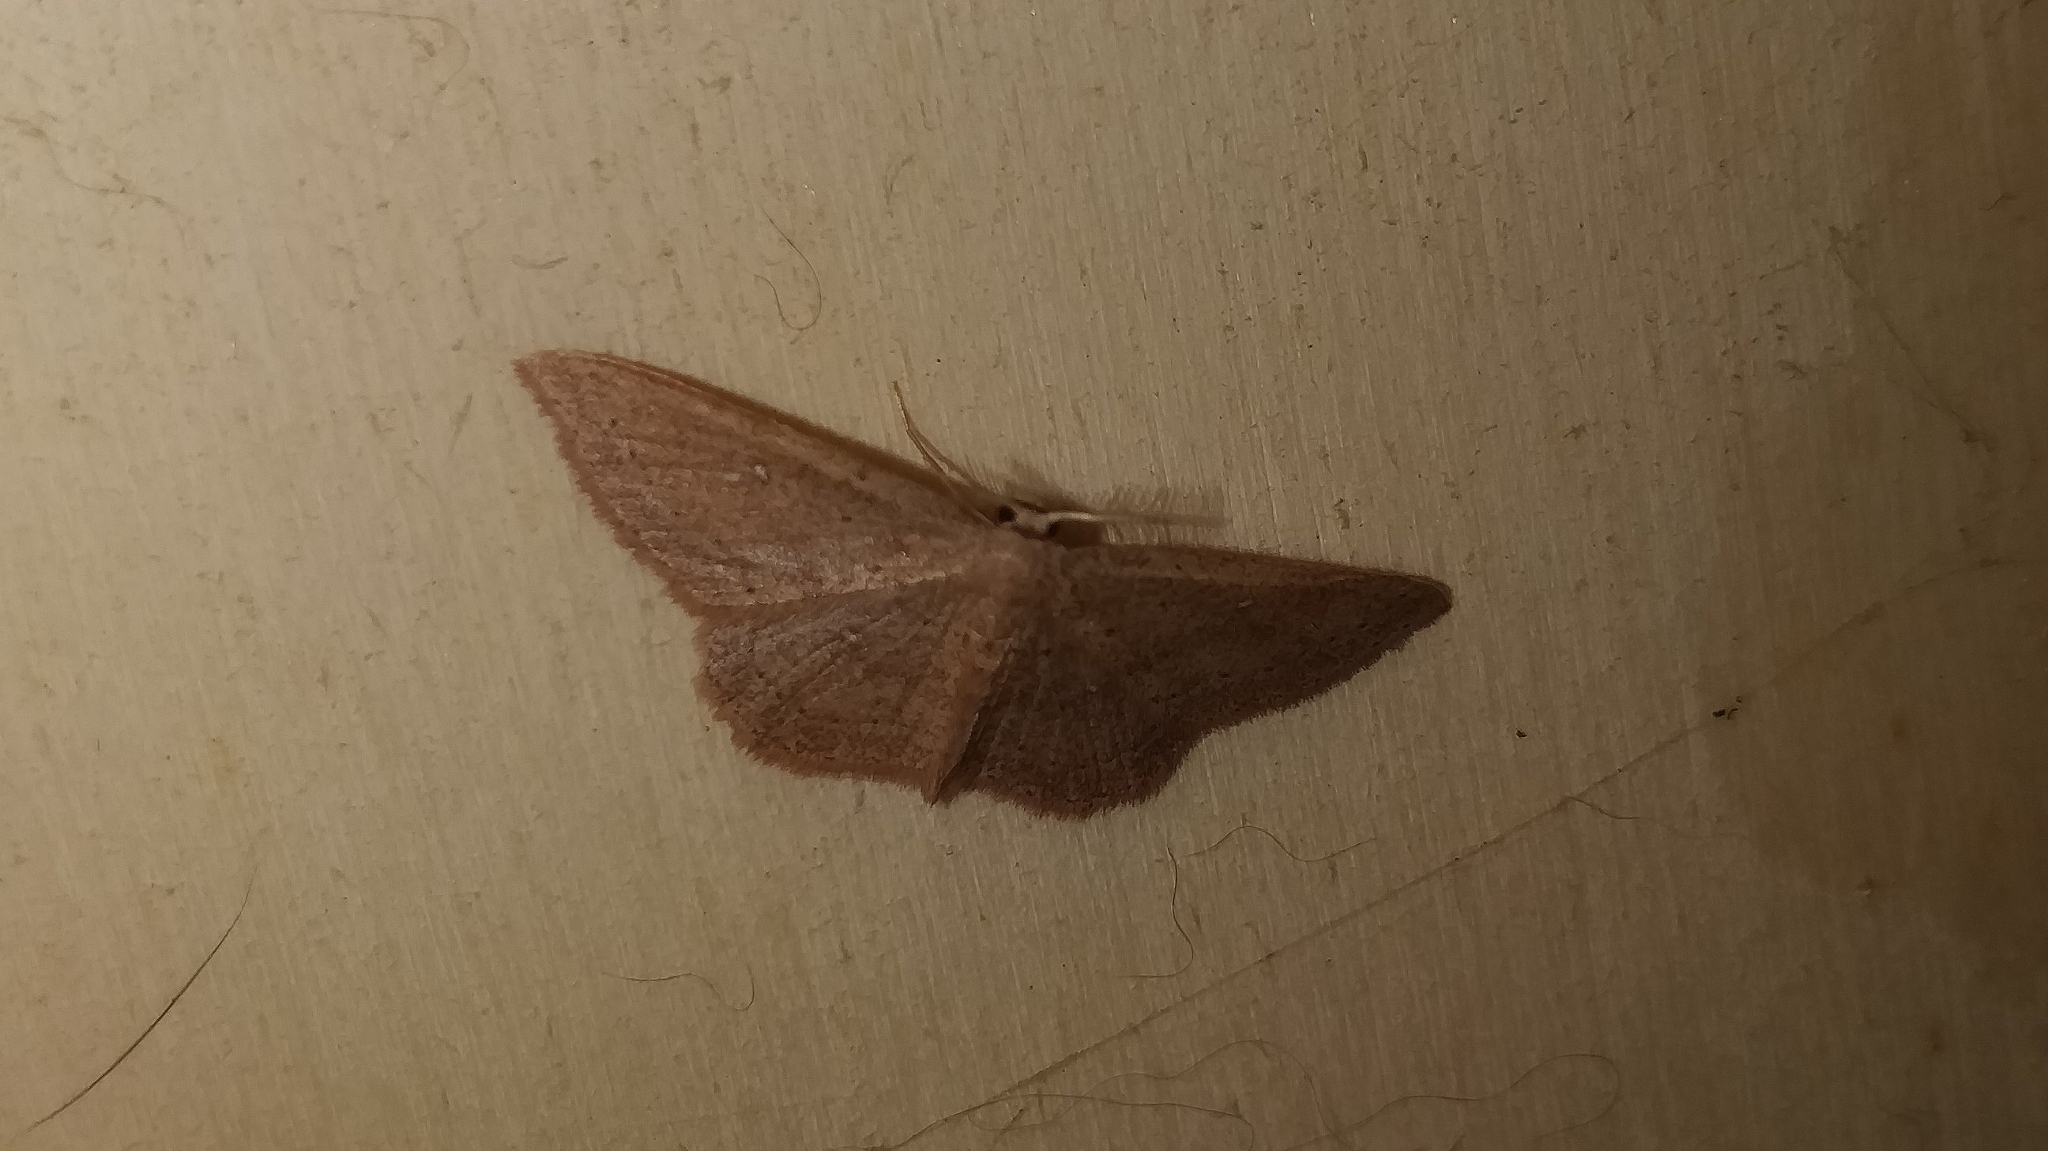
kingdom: Animalia
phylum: Arthropoda
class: Insecta
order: Lepidoptera
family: Geometridae
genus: Cyclophora
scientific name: Cyclophora maderensis
